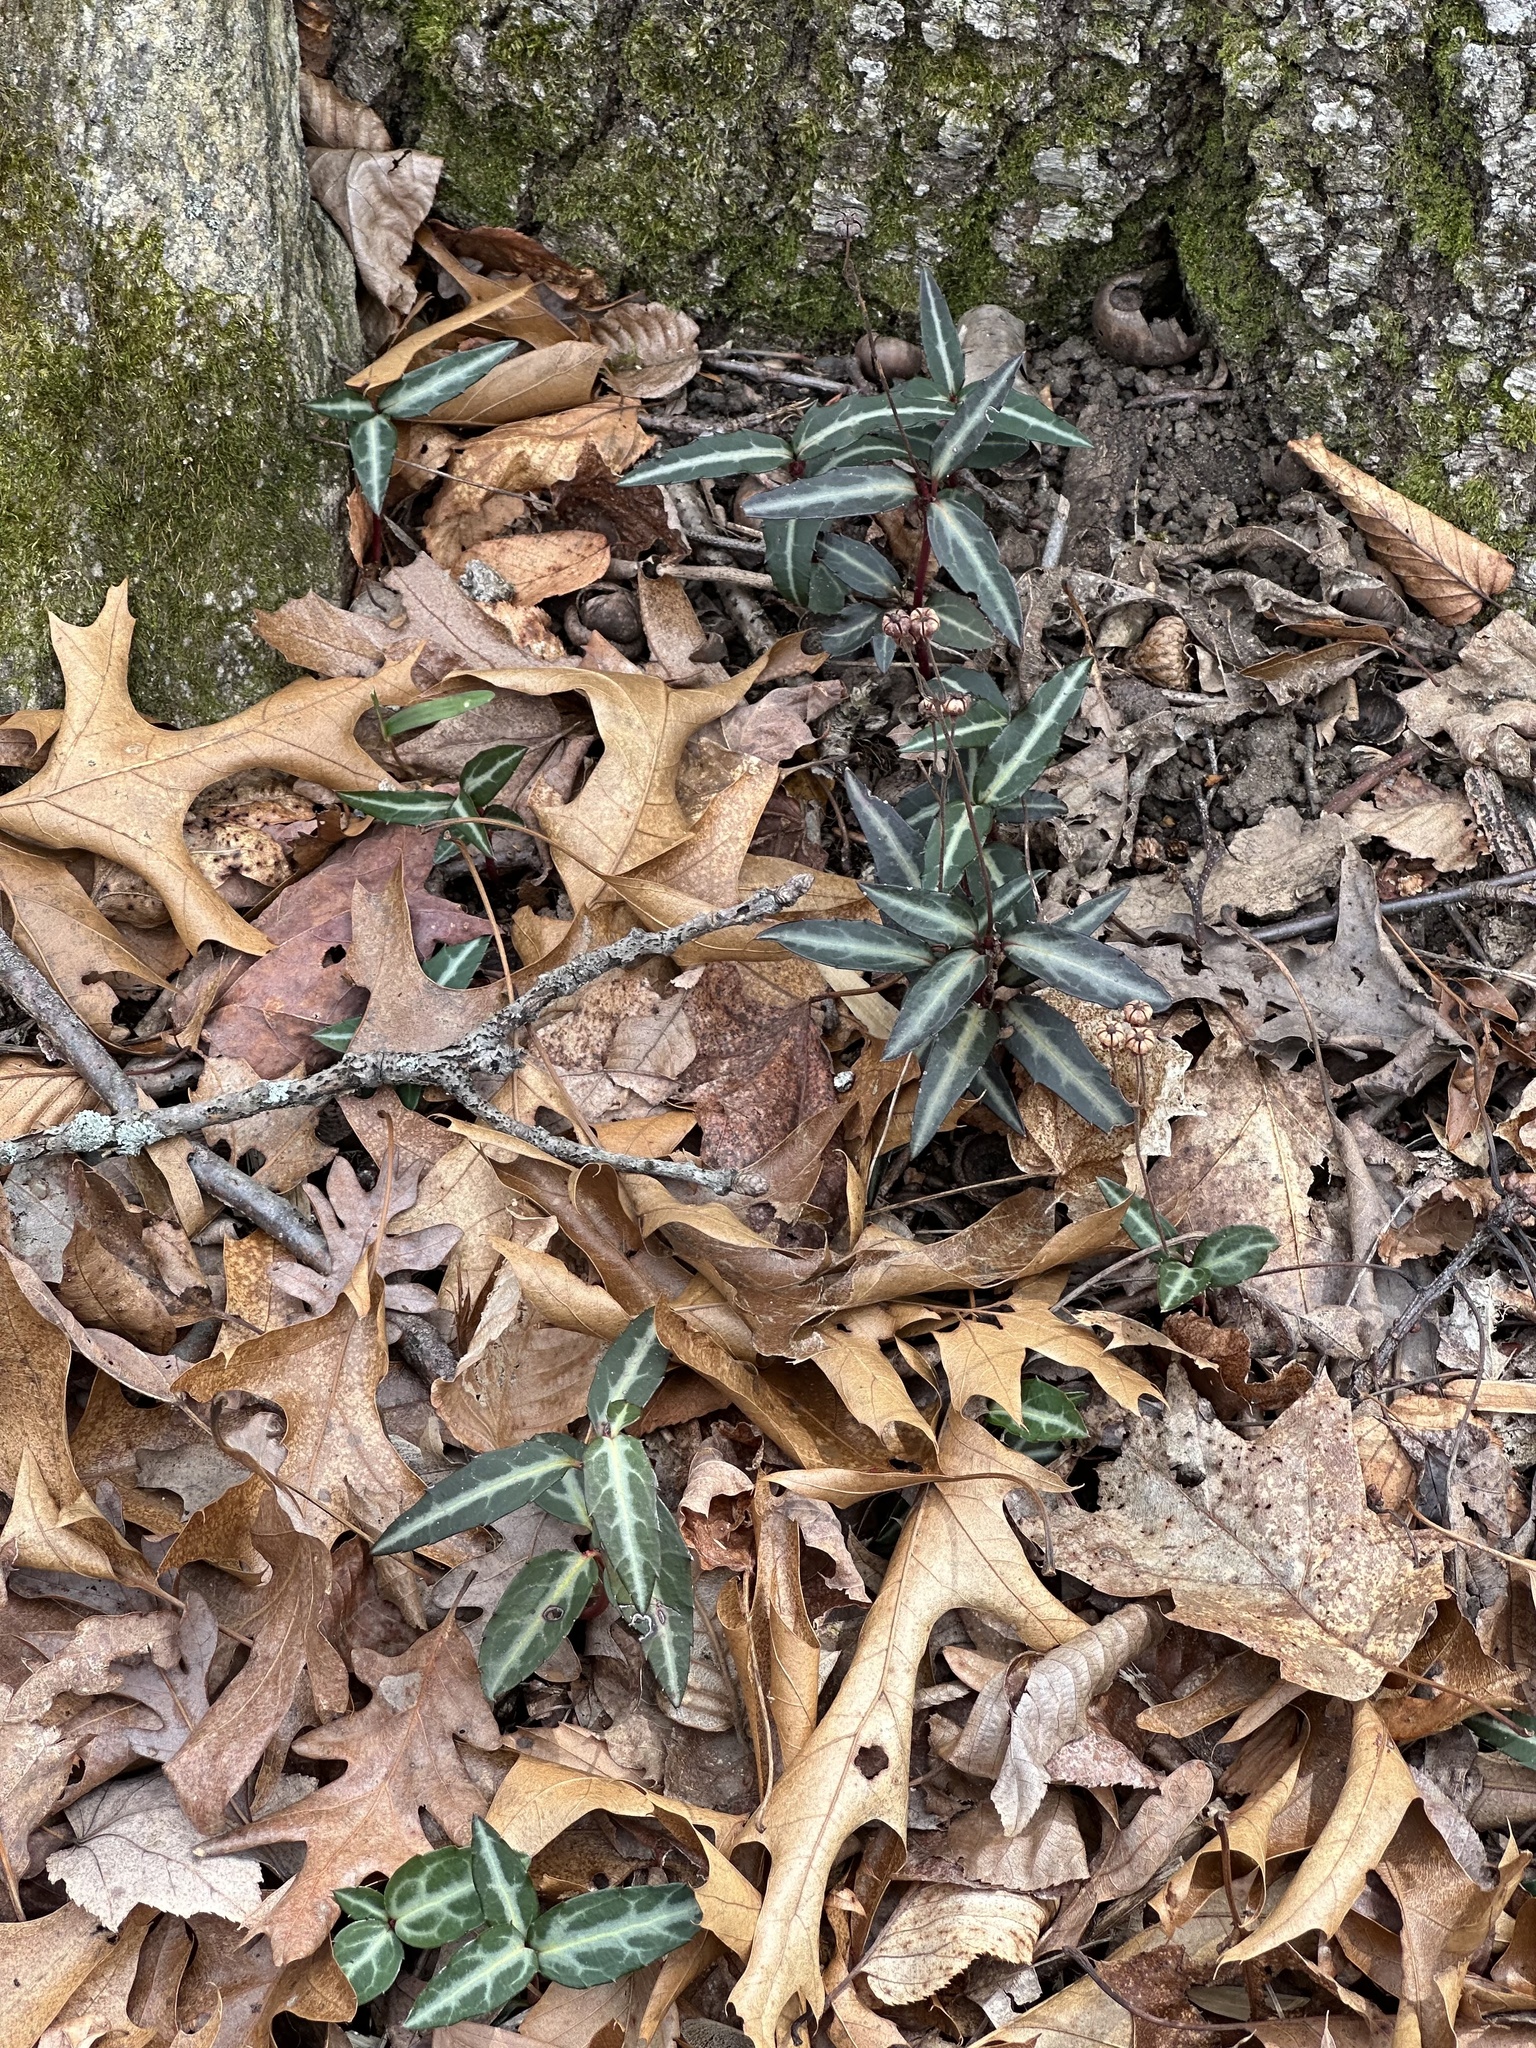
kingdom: Plantae
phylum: Tracheophyta
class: Magnoliopsida
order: Ericales
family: Ericaceae
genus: Chimaphila
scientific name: Chimaphila maculata
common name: Spotted pipsissewa
